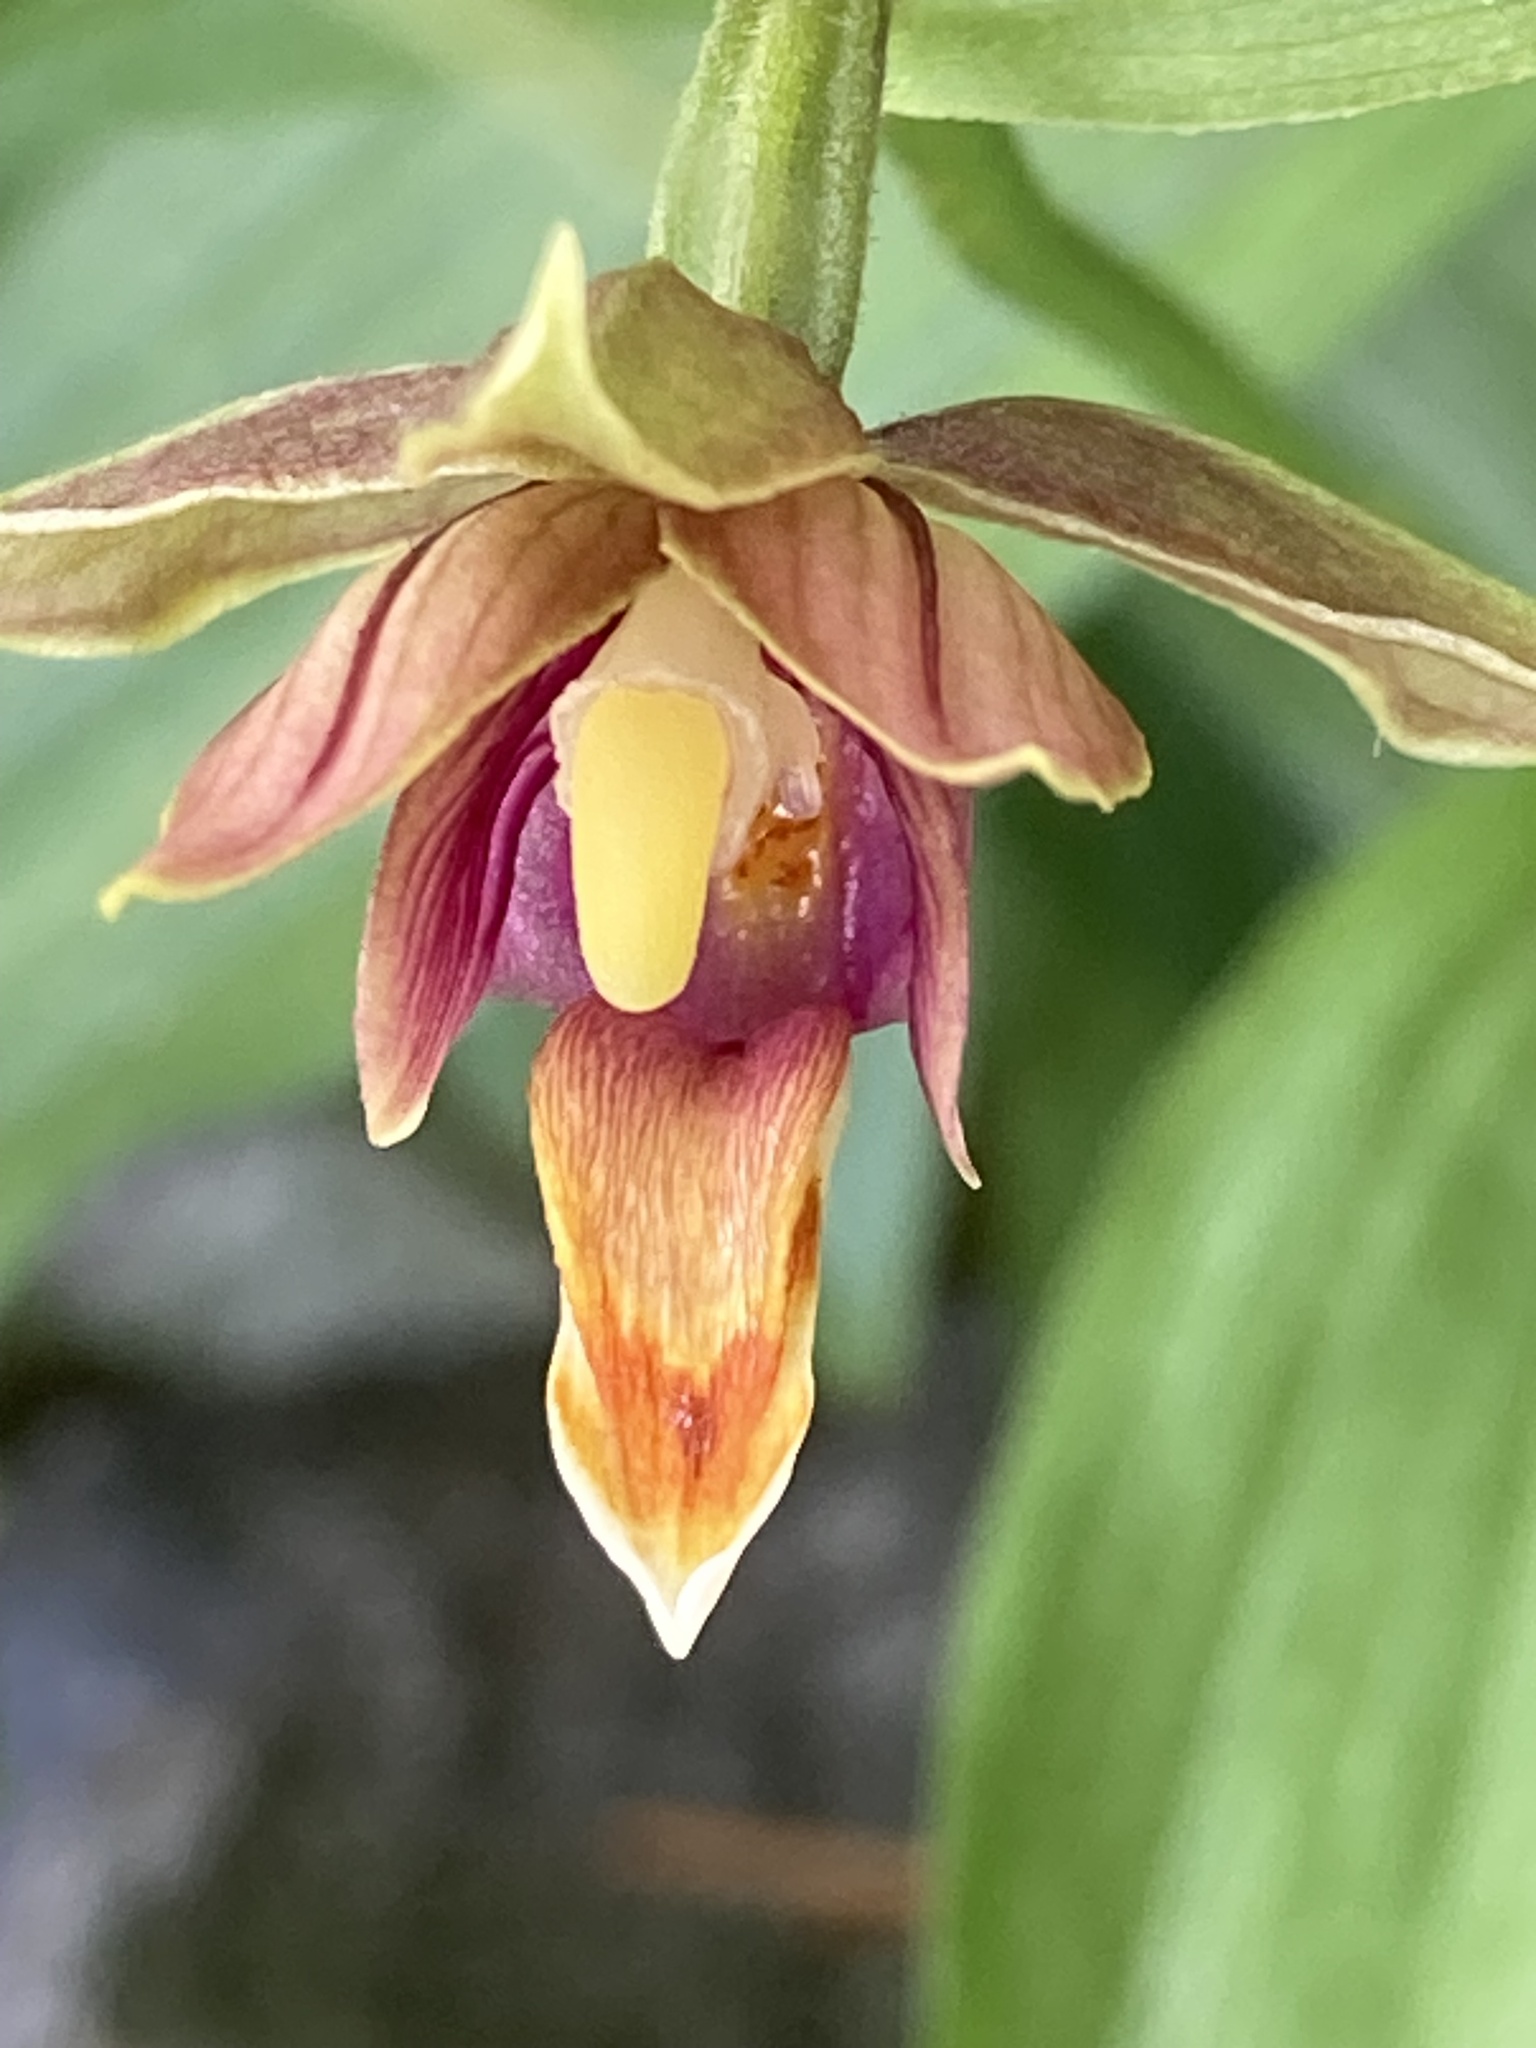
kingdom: Plantae
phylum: Tracheophyta
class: Liliopsida
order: Asparagales
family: Orchidaceae
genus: Epipactis
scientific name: Epipactis gigantea
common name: Chatterbox
